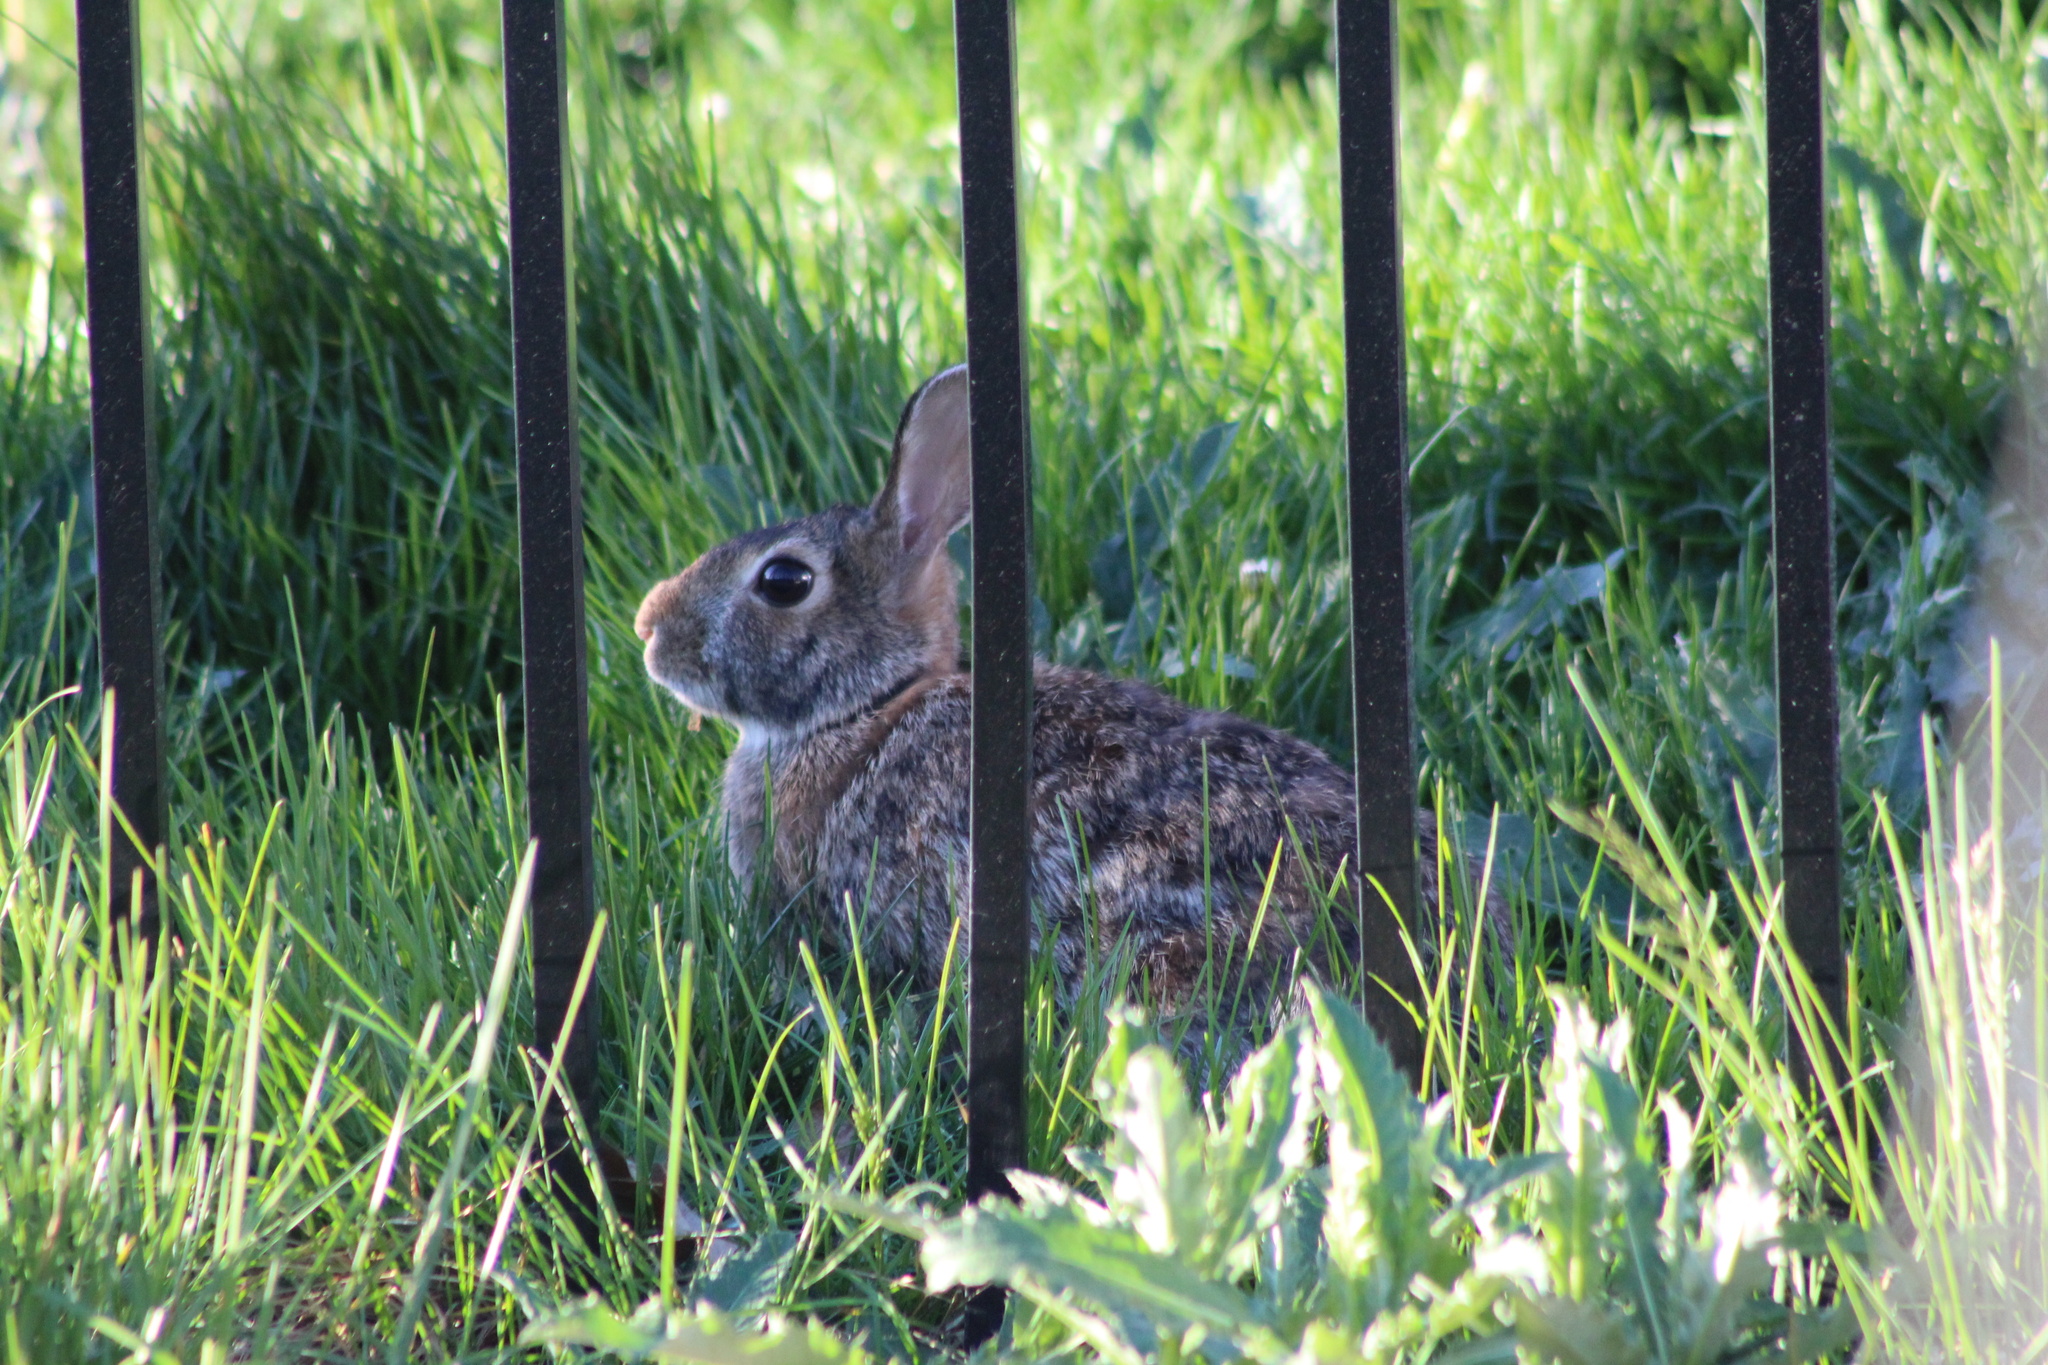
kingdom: Animalia
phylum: Chordata
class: Mammalia
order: Lagomorpha
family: Leporidae
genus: Sylvilagus
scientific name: Sylvilagus floridanus
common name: Eastern cottontail
